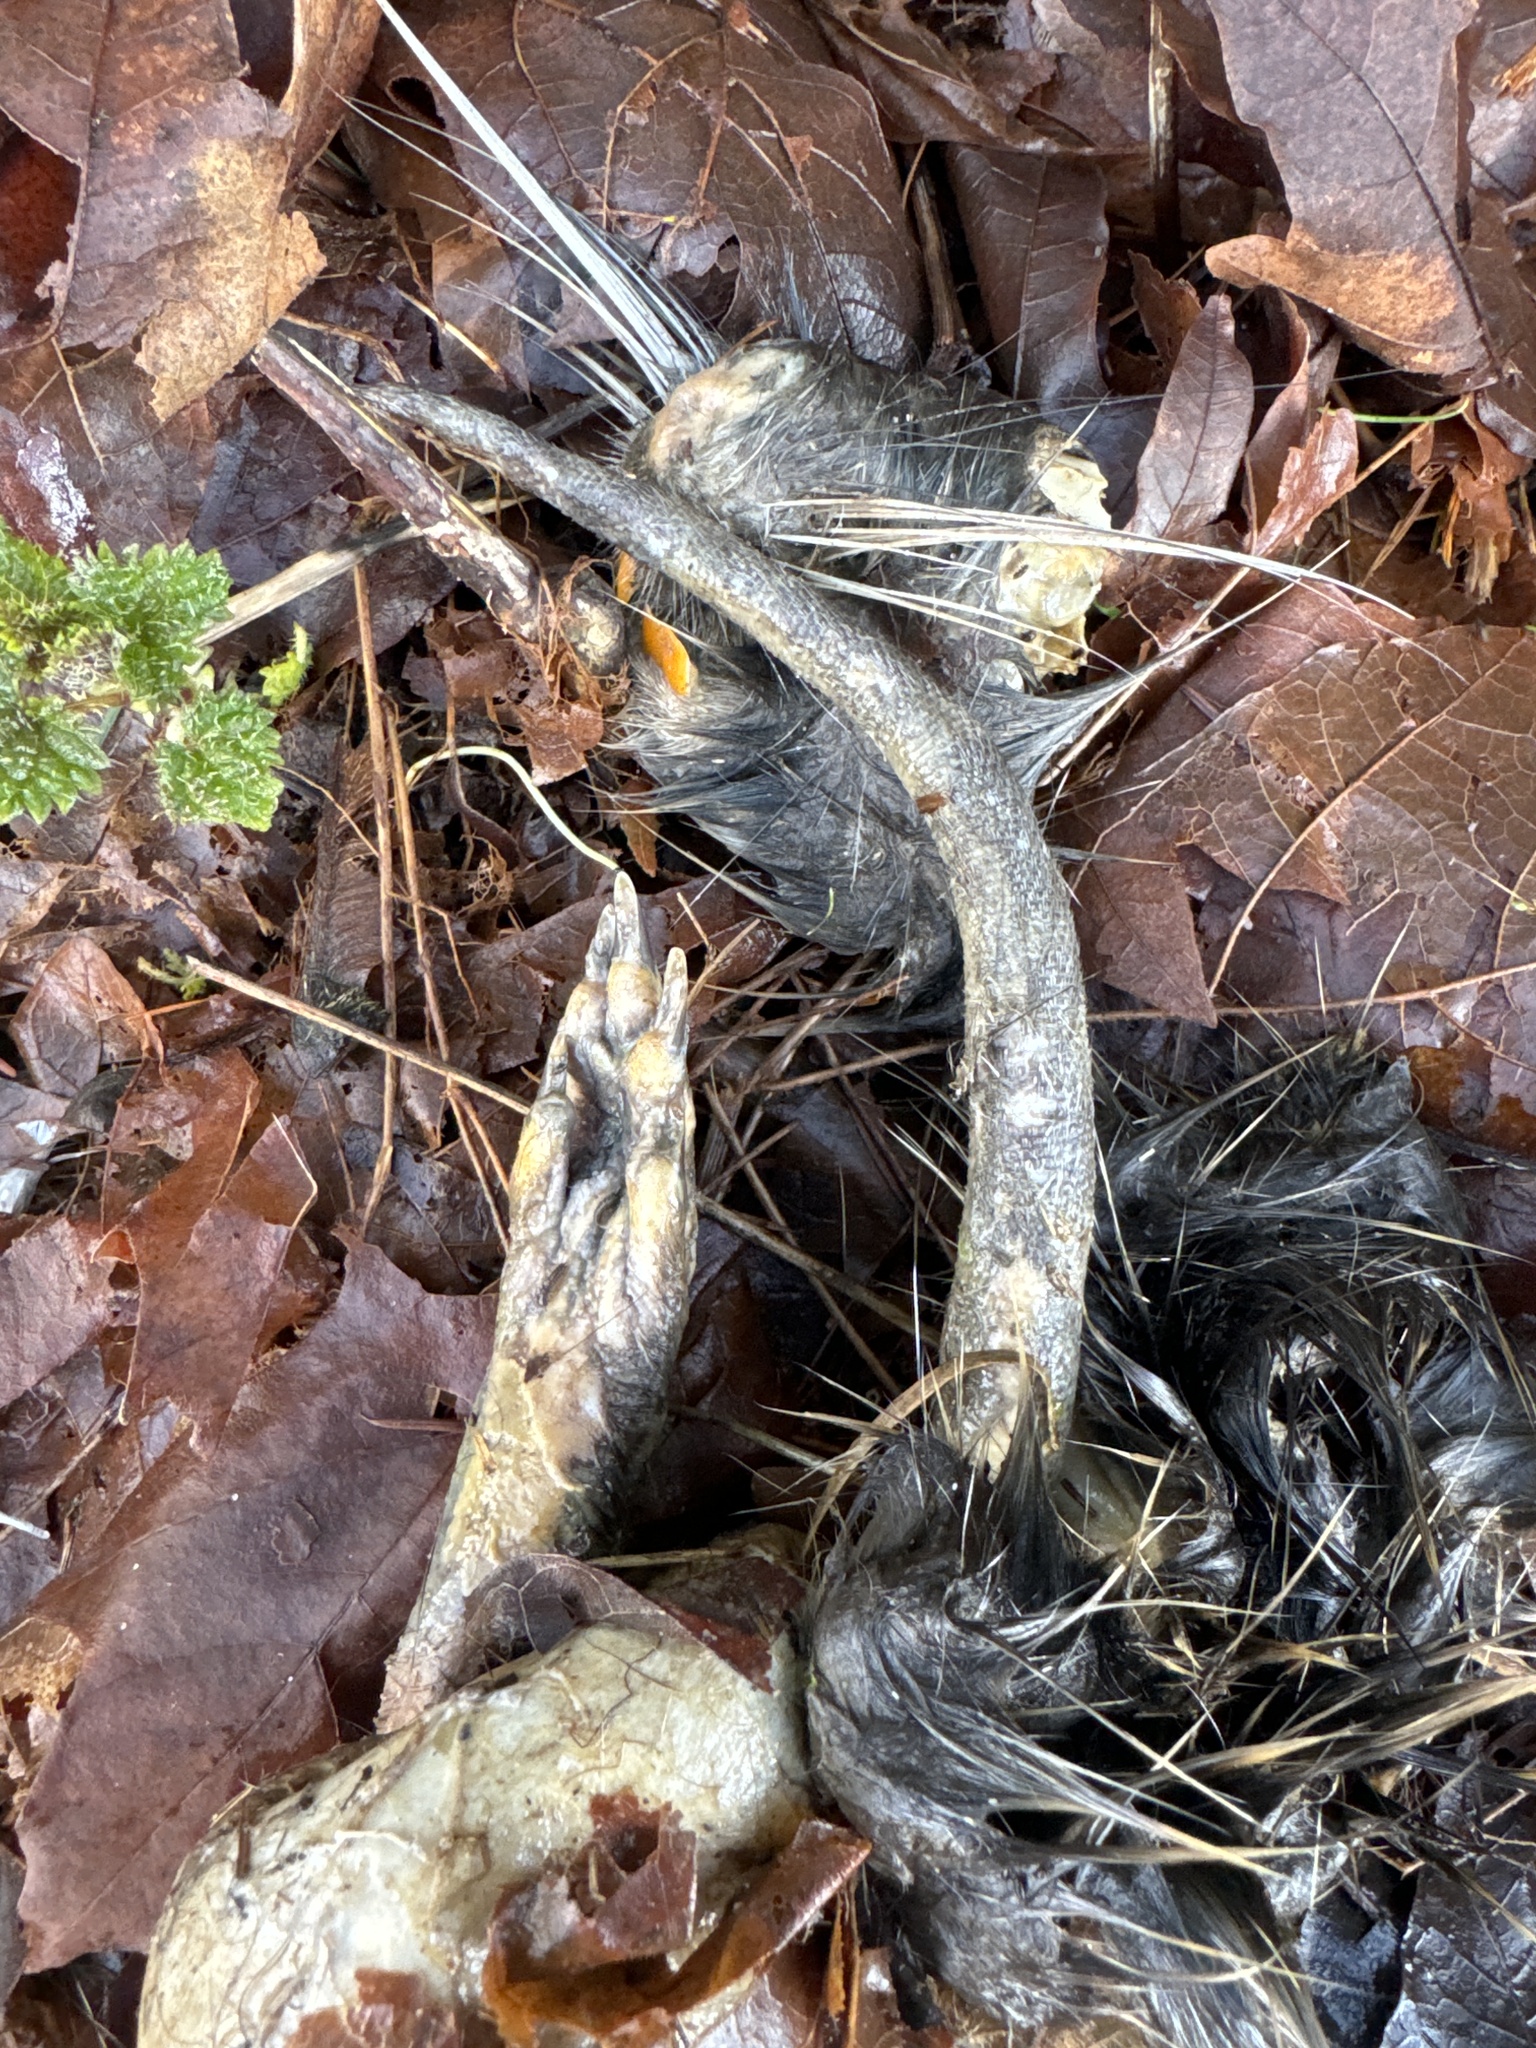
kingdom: Animalia
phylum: Chordata
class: Mammalia
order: Rodentia
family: Myocastoridae
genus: Myocastor
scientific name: Myocastor coypus
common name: Coypu
